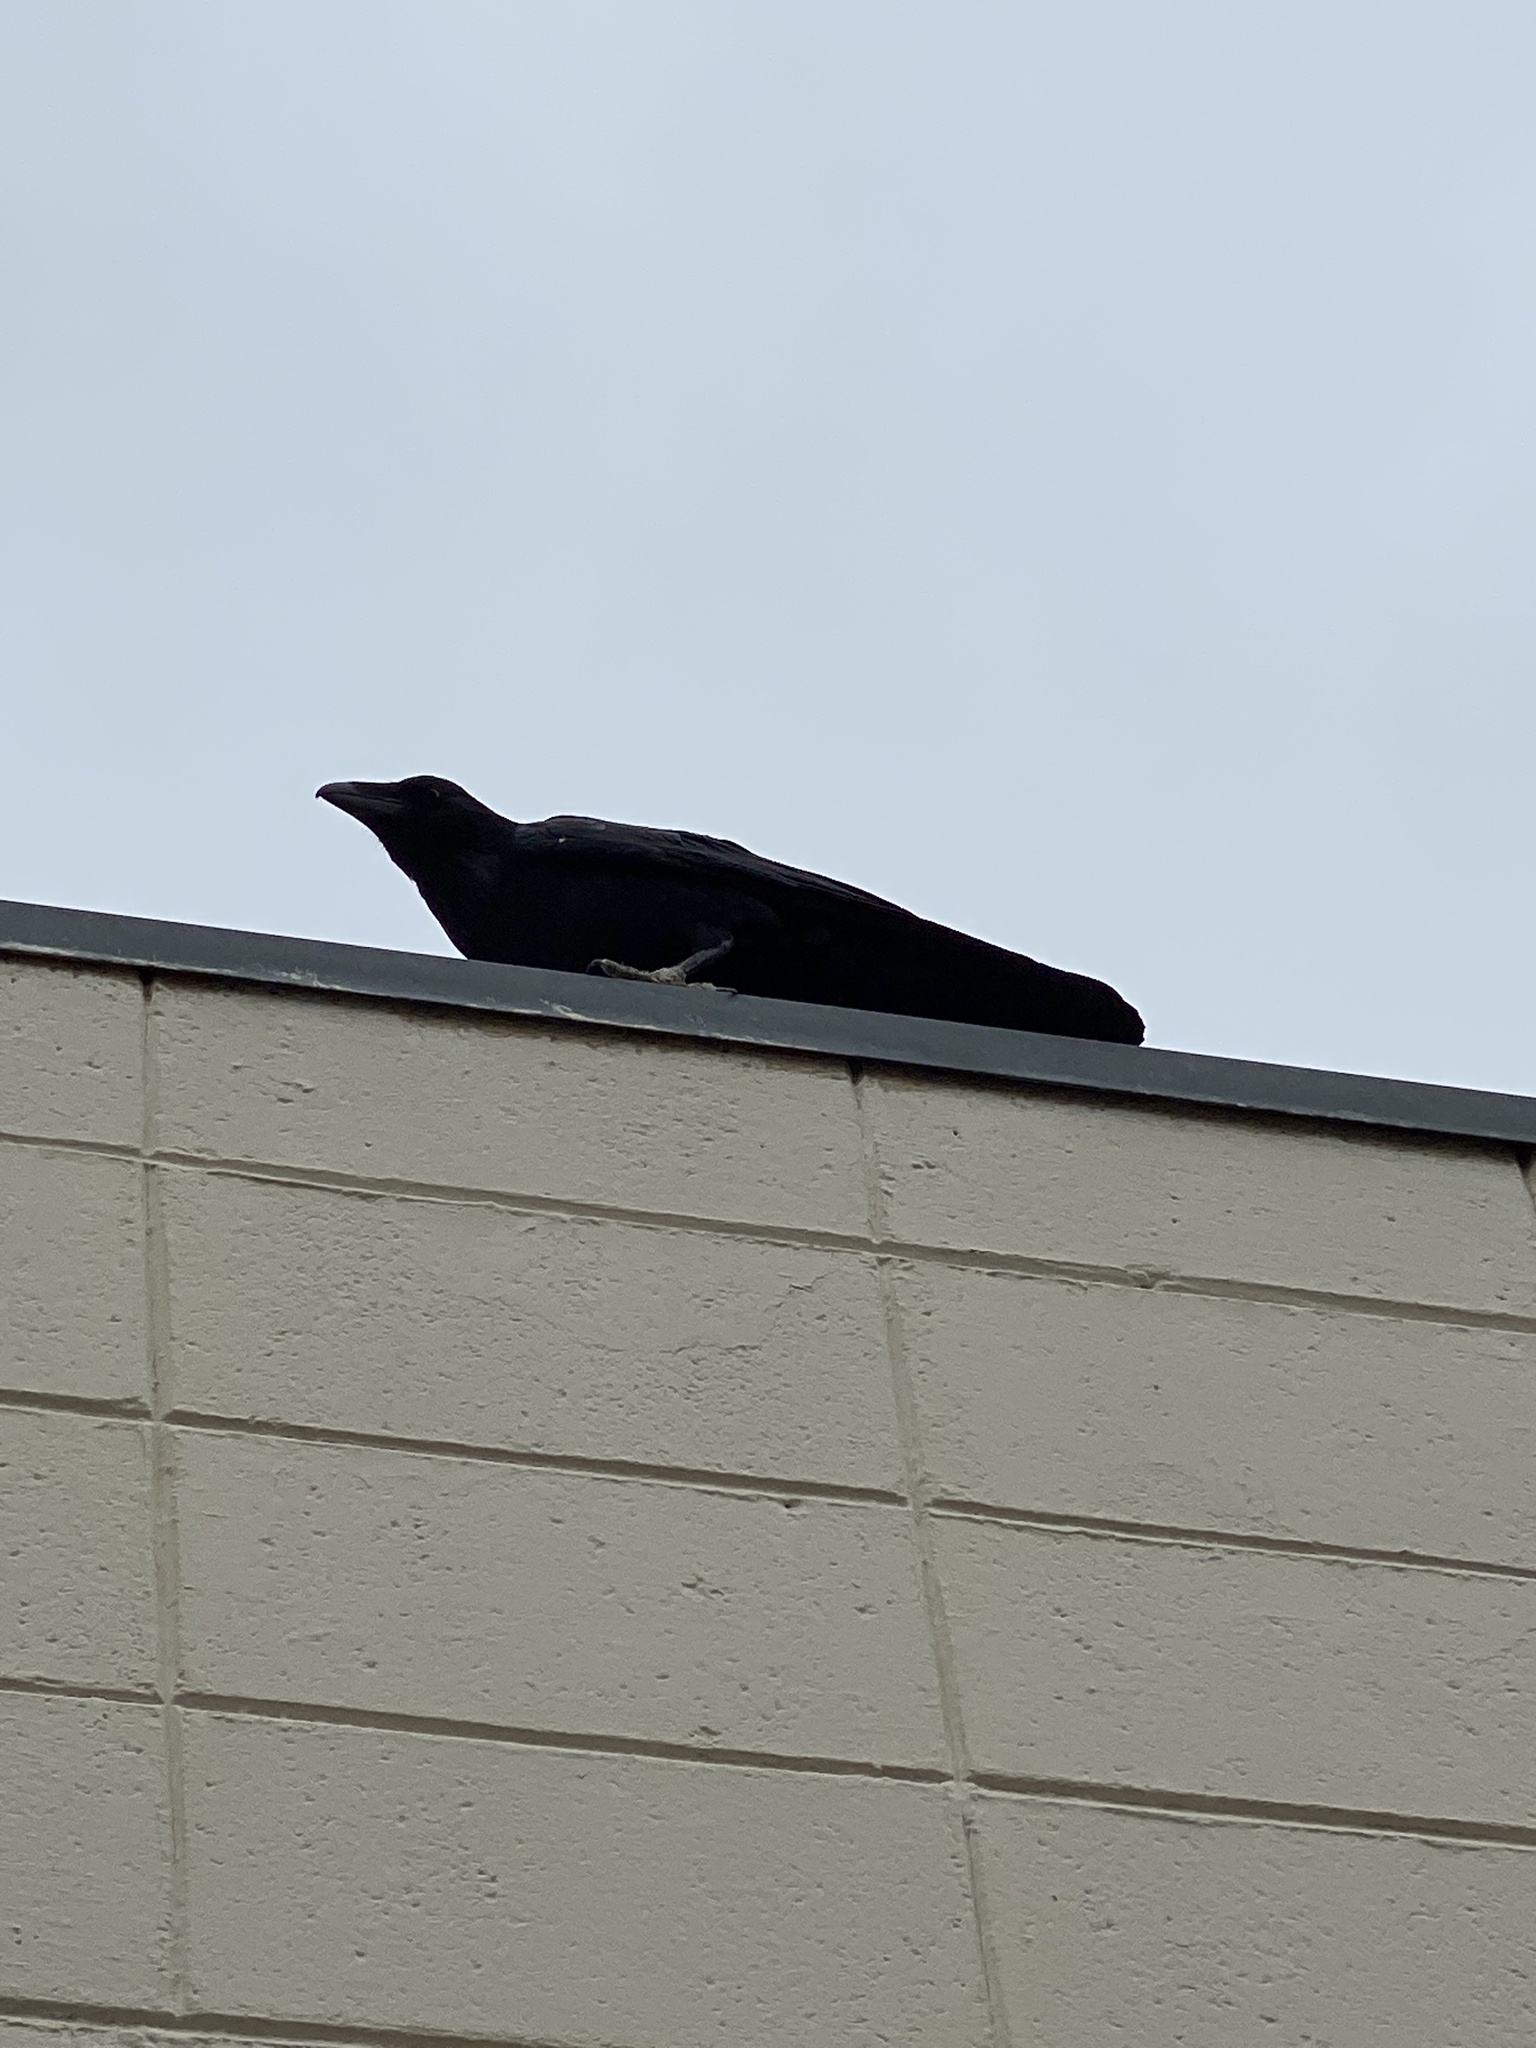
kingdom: Animalia
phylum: Chordata
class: Aves
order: Passeriformes
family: Corvidae
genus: Corvus
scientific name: Corvus corax
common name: Common raven
